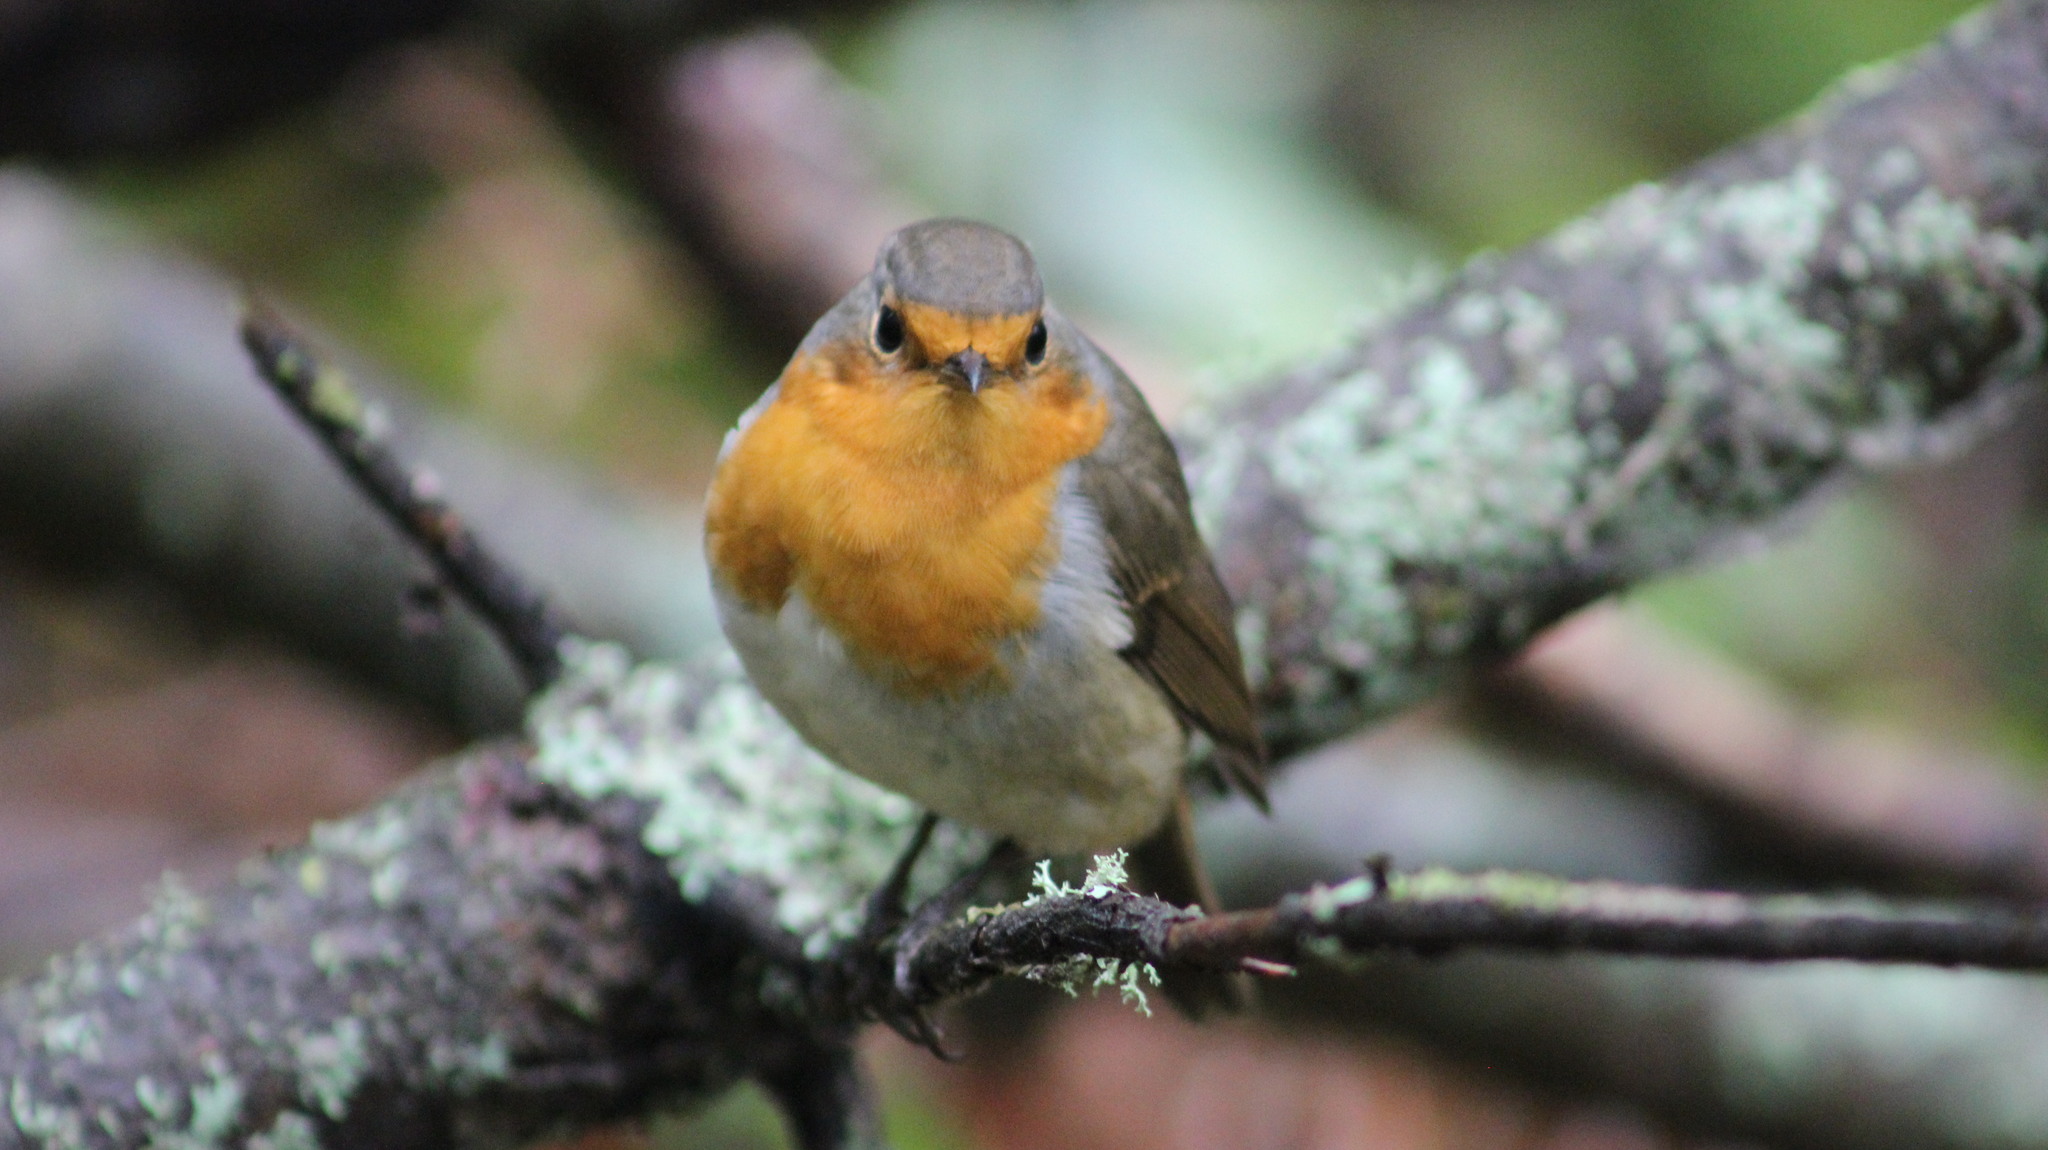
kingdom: Animalia
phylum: Chordata
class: Aves
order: Passeriformes
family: Muscicapidae
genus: Erithacus
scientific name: Erithacus rubecula
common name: European robin
